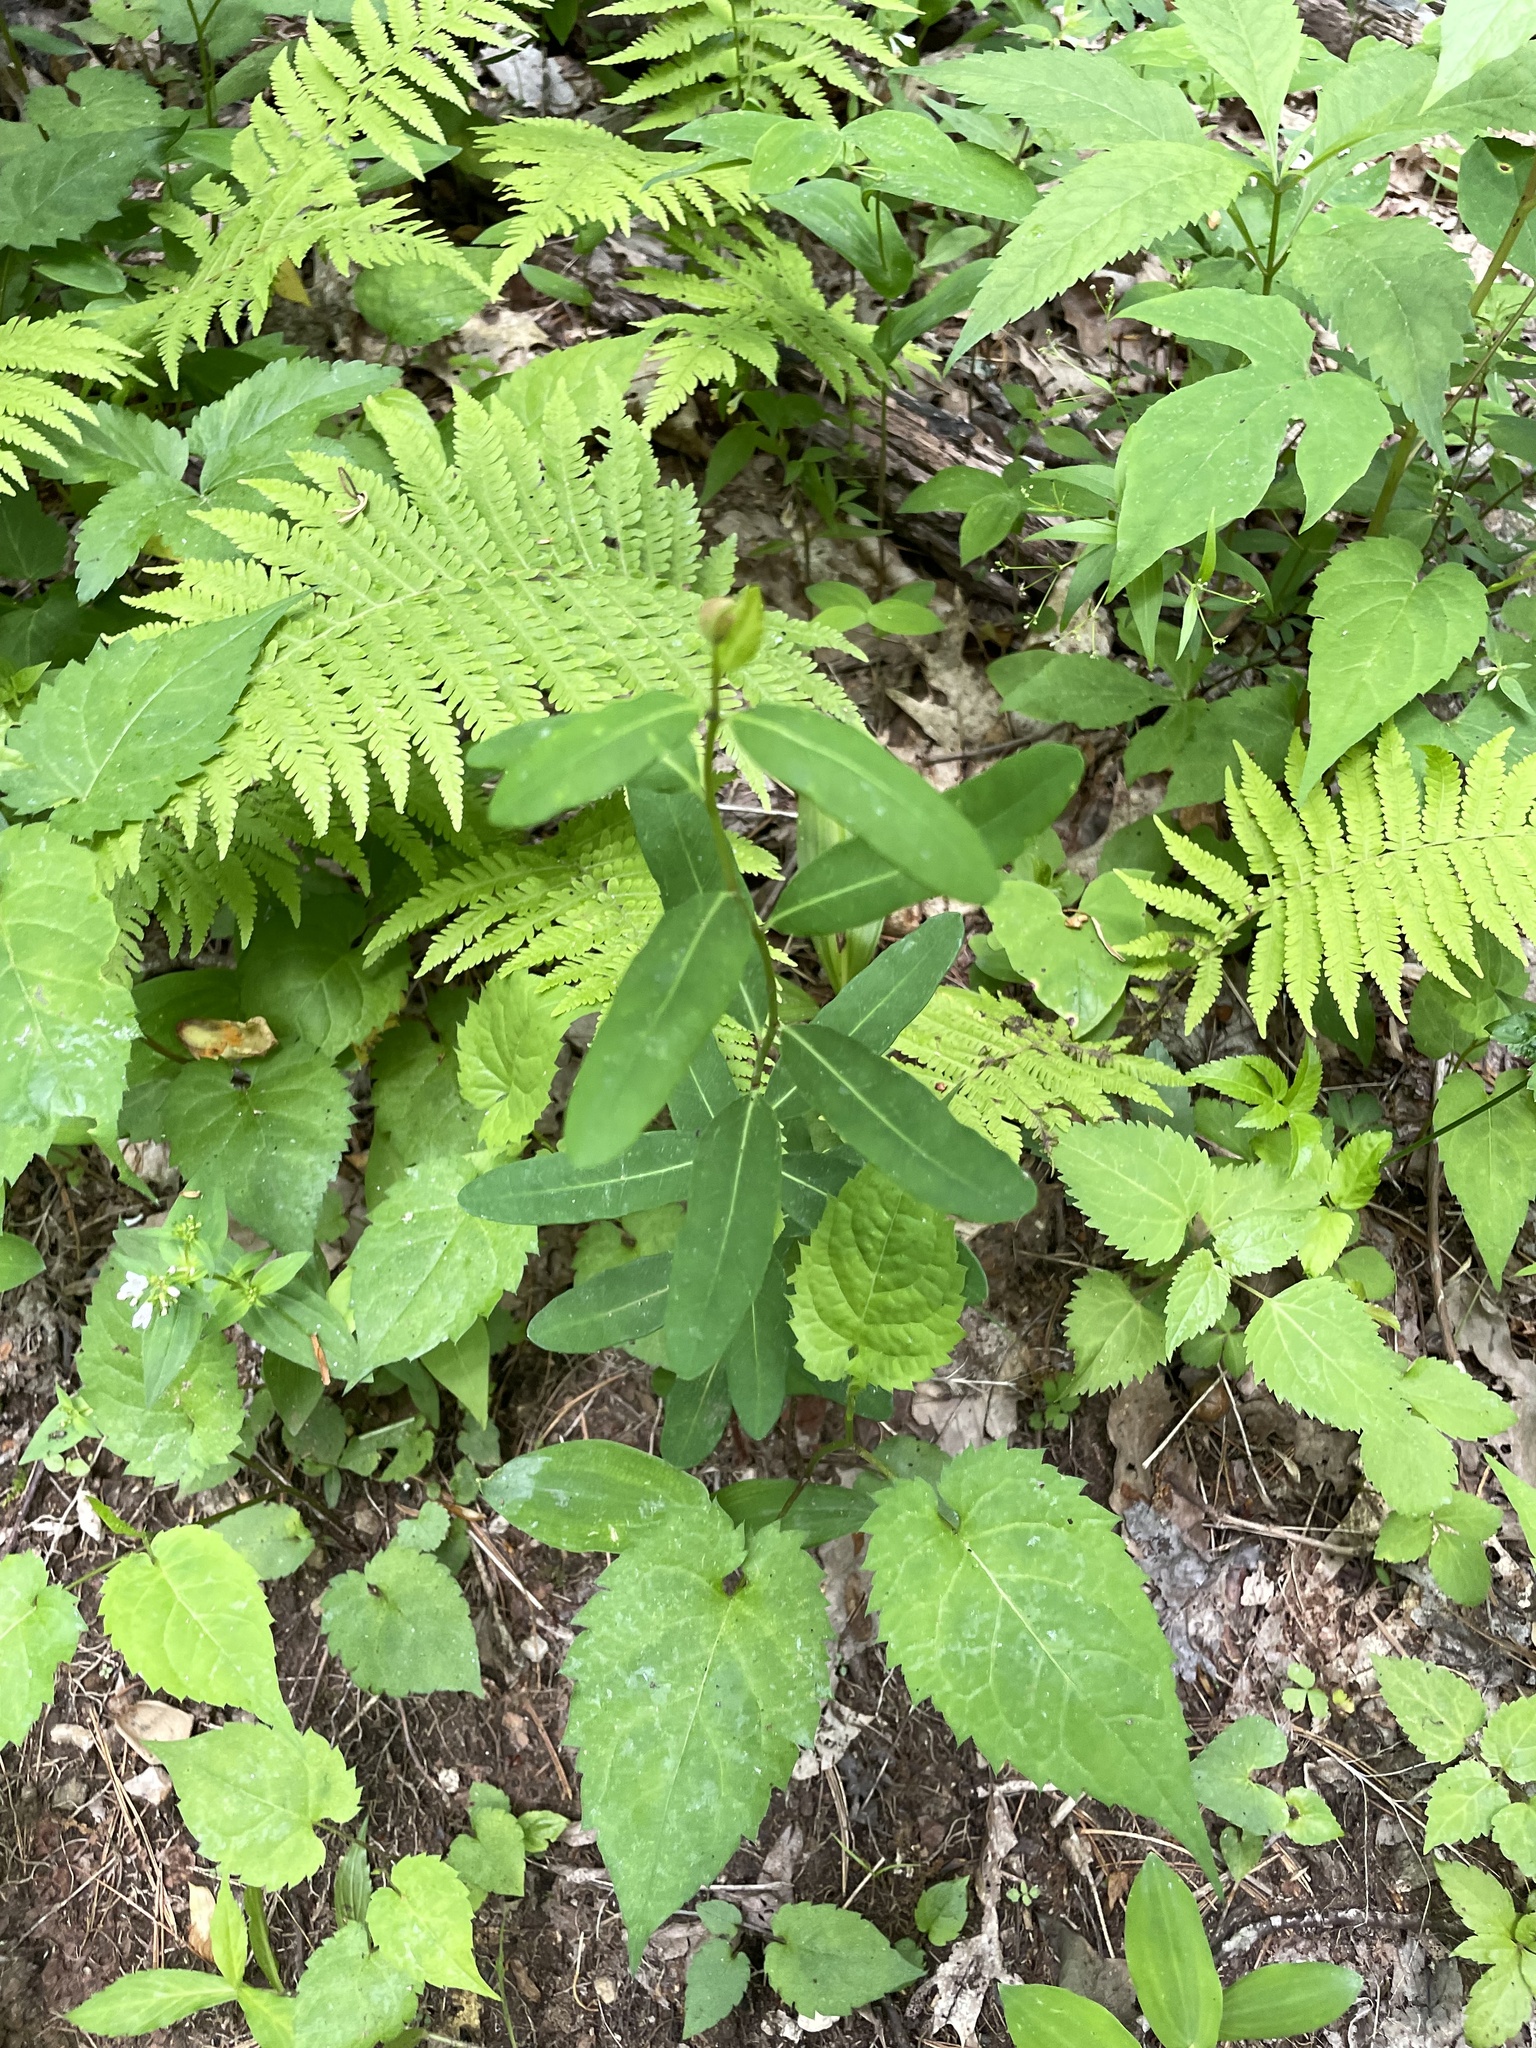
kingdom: Plantae
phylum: Tracheophyta
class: Magnoliopsida
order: Malpighiales
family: Euphorbiaceae
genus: Euphorbia
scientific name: Euphorbia pubentissima
